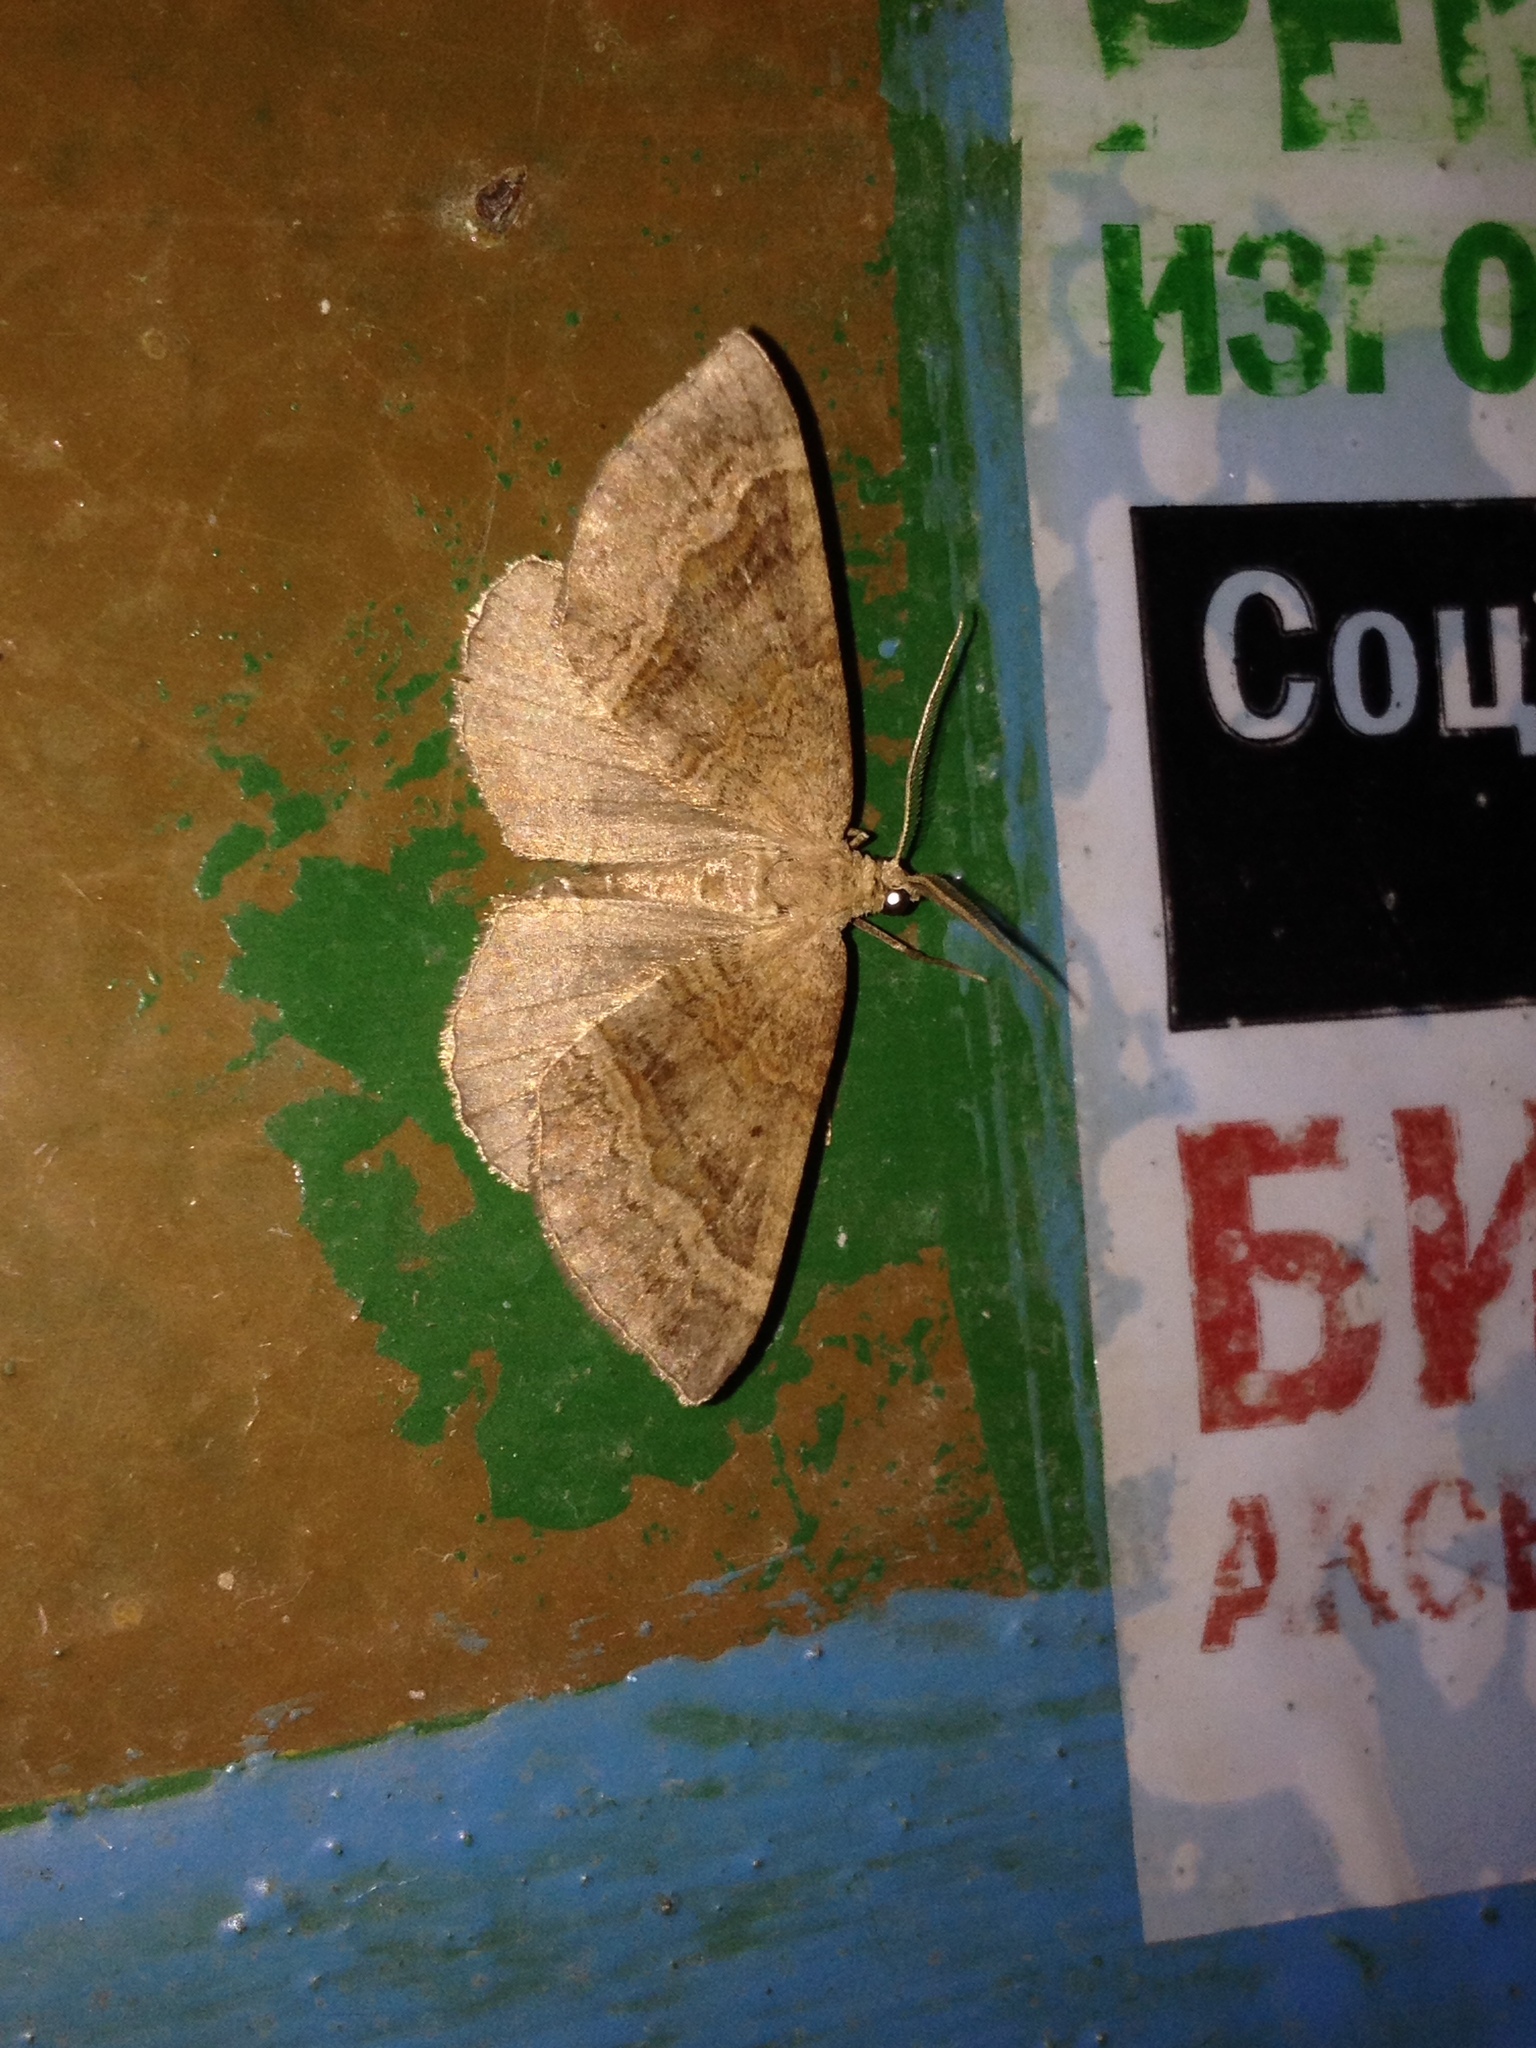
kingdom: Animalia
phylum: Arthropoda
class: Insecta
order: Lepidoptera
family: Geometridae
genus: Scotopteryx
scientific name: Scotopteryx chenopodiata
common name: Shaded broad-bar
